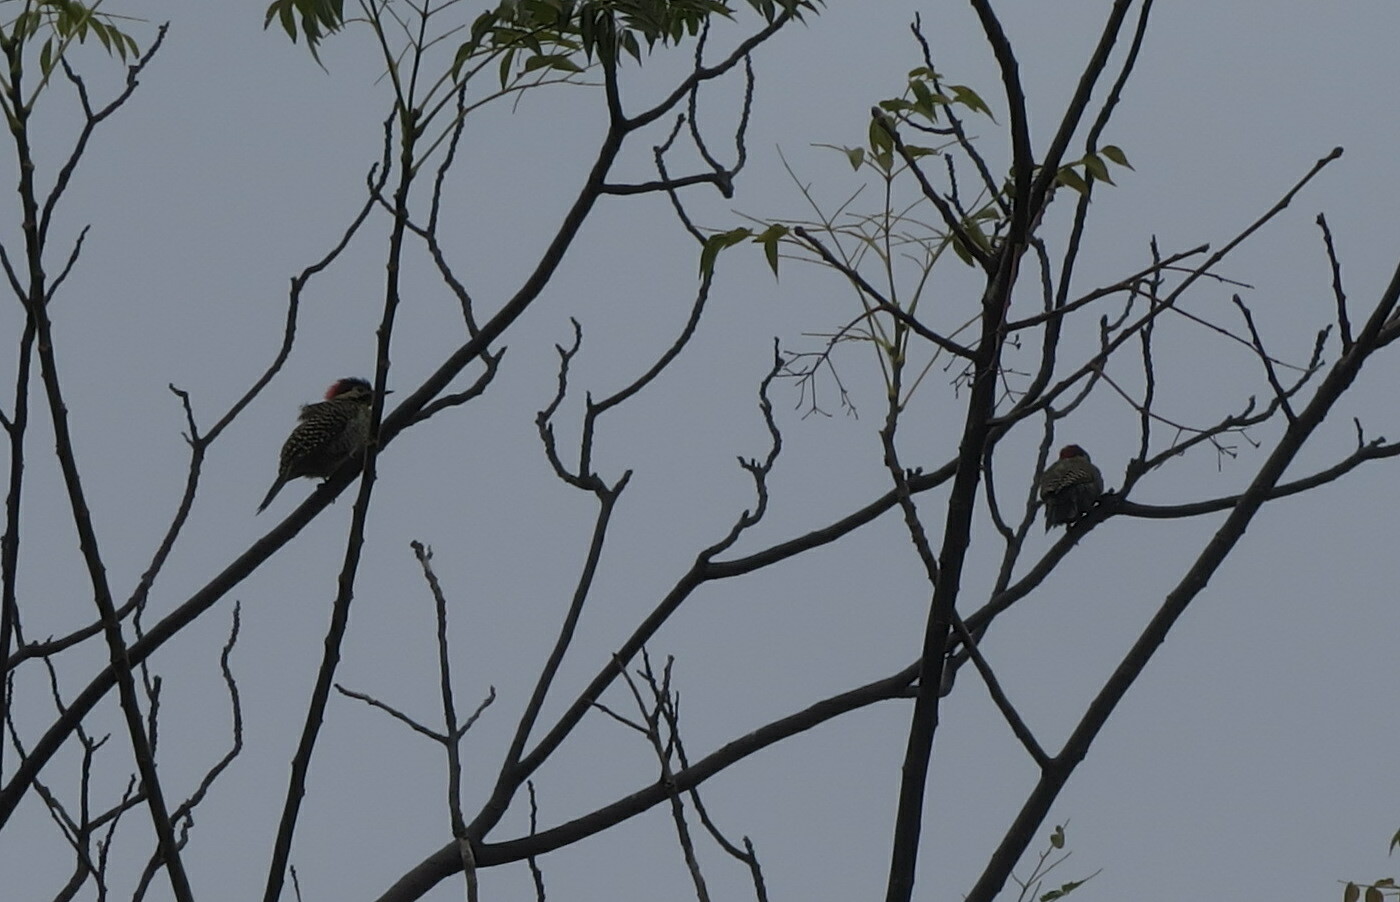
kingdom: Animalia
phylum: Chordata
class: Aves
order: Piciformes
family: Picidae
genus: Colaptes
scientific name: Colaptes melanochloros
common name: Green-barred woodpecker
